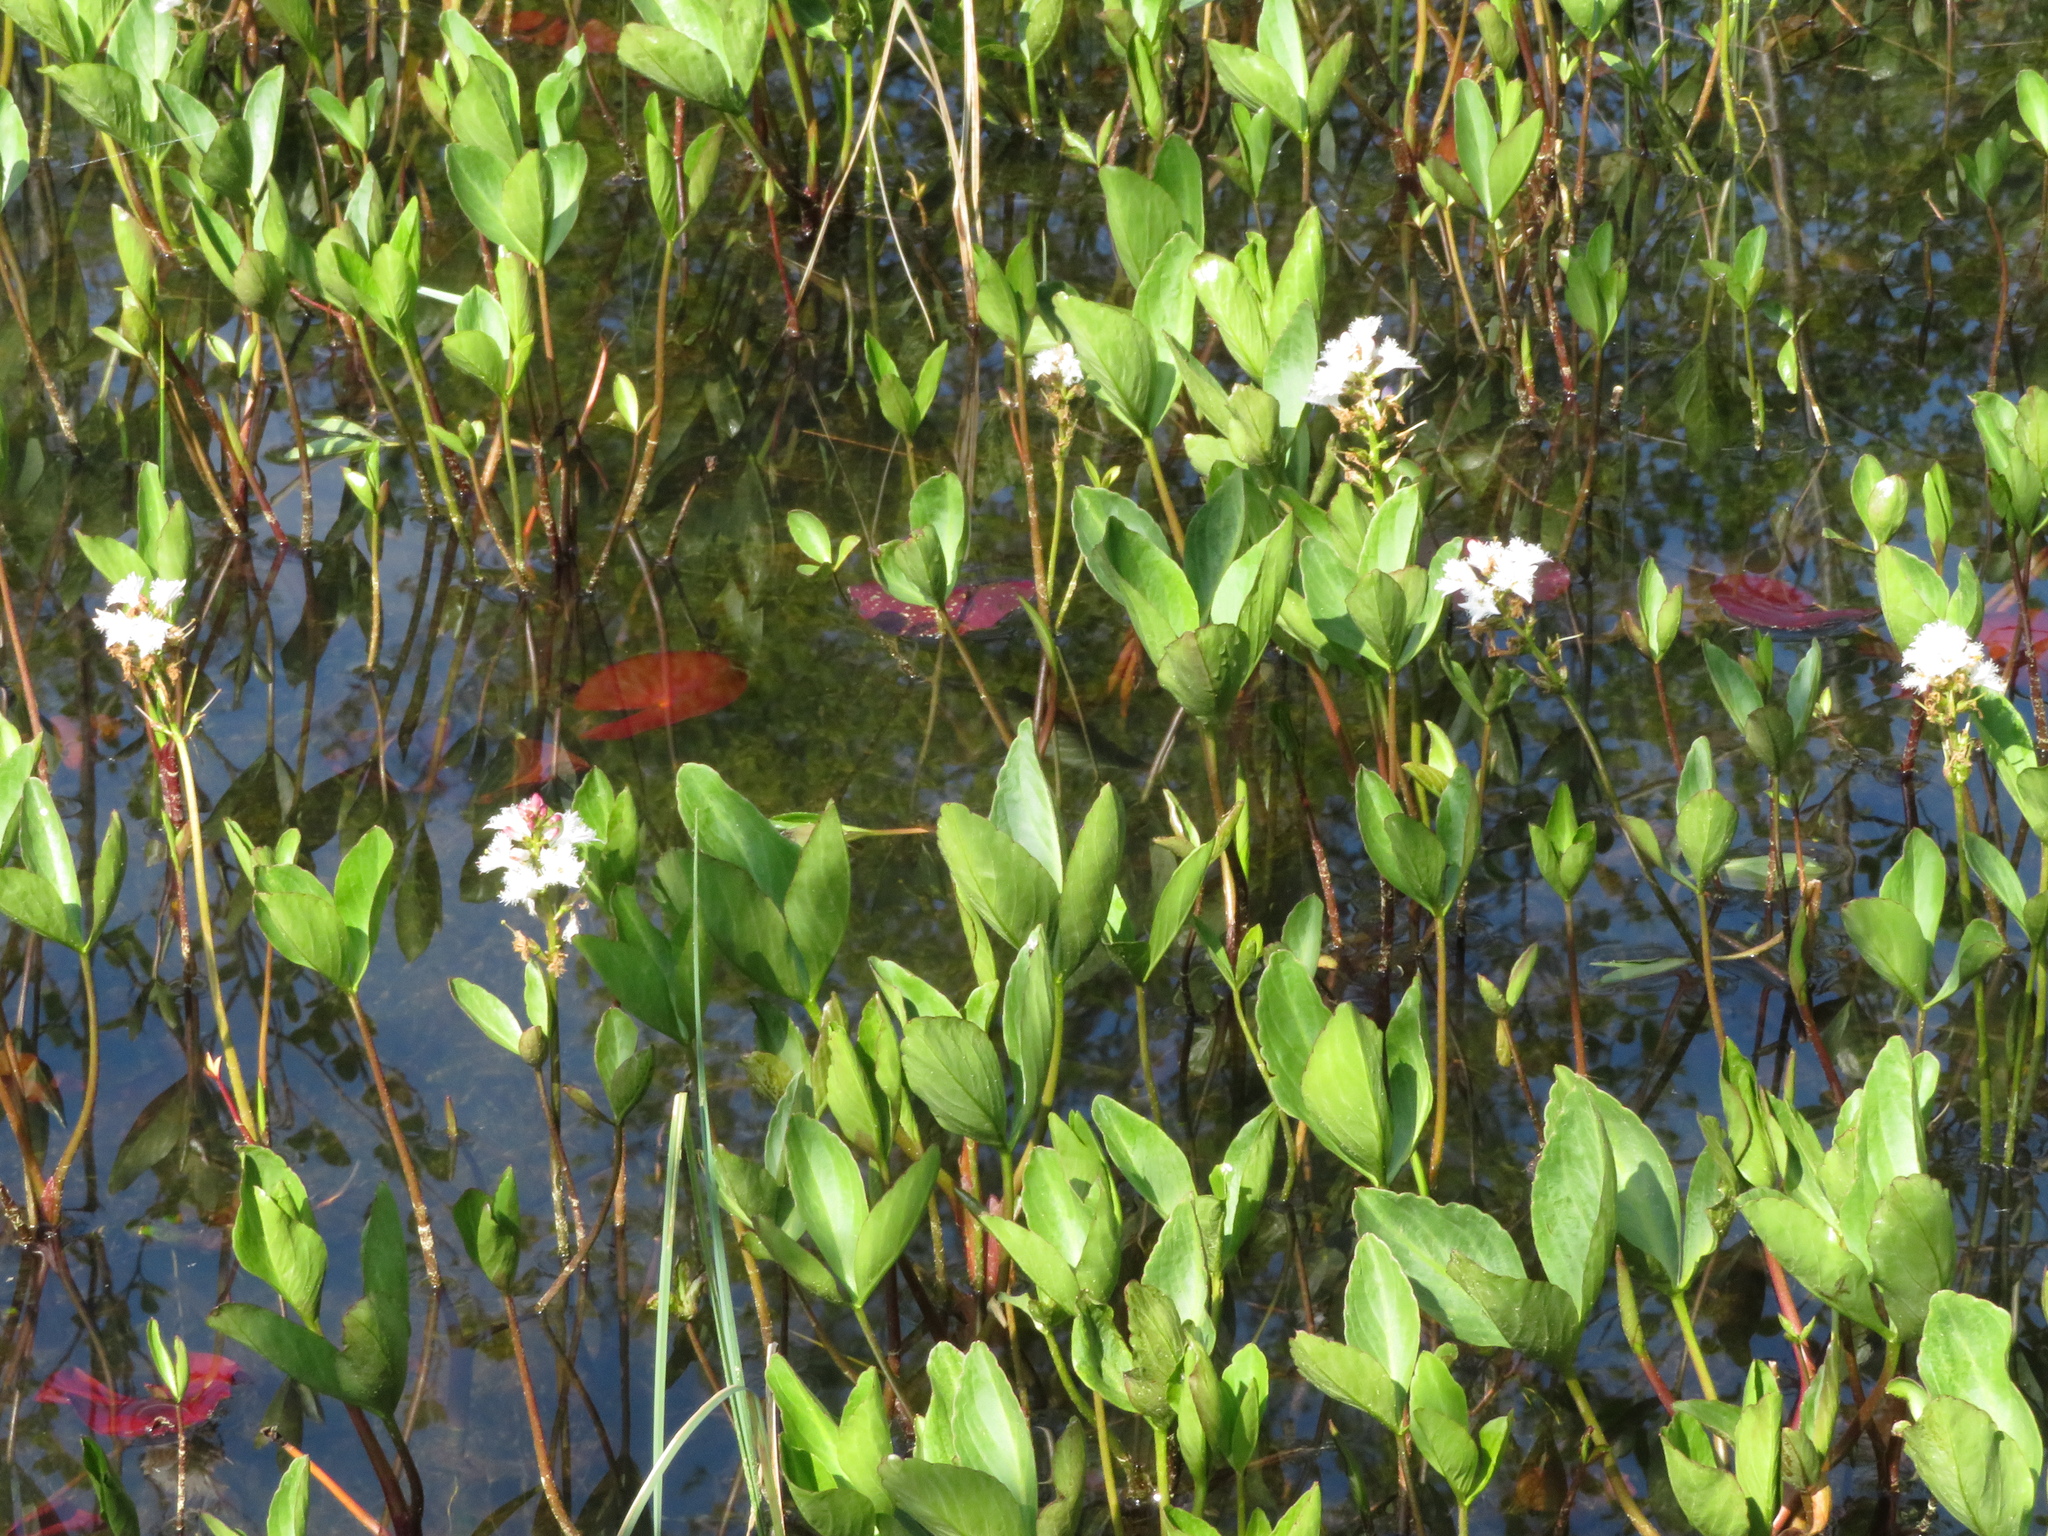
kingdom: Plantae
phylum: Tracheophyta
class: Magnoliopsida
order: Asterales
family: Menyanthaceae
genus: Menyanthes
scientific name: Menyanthes trifoliata
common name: Bogbean
